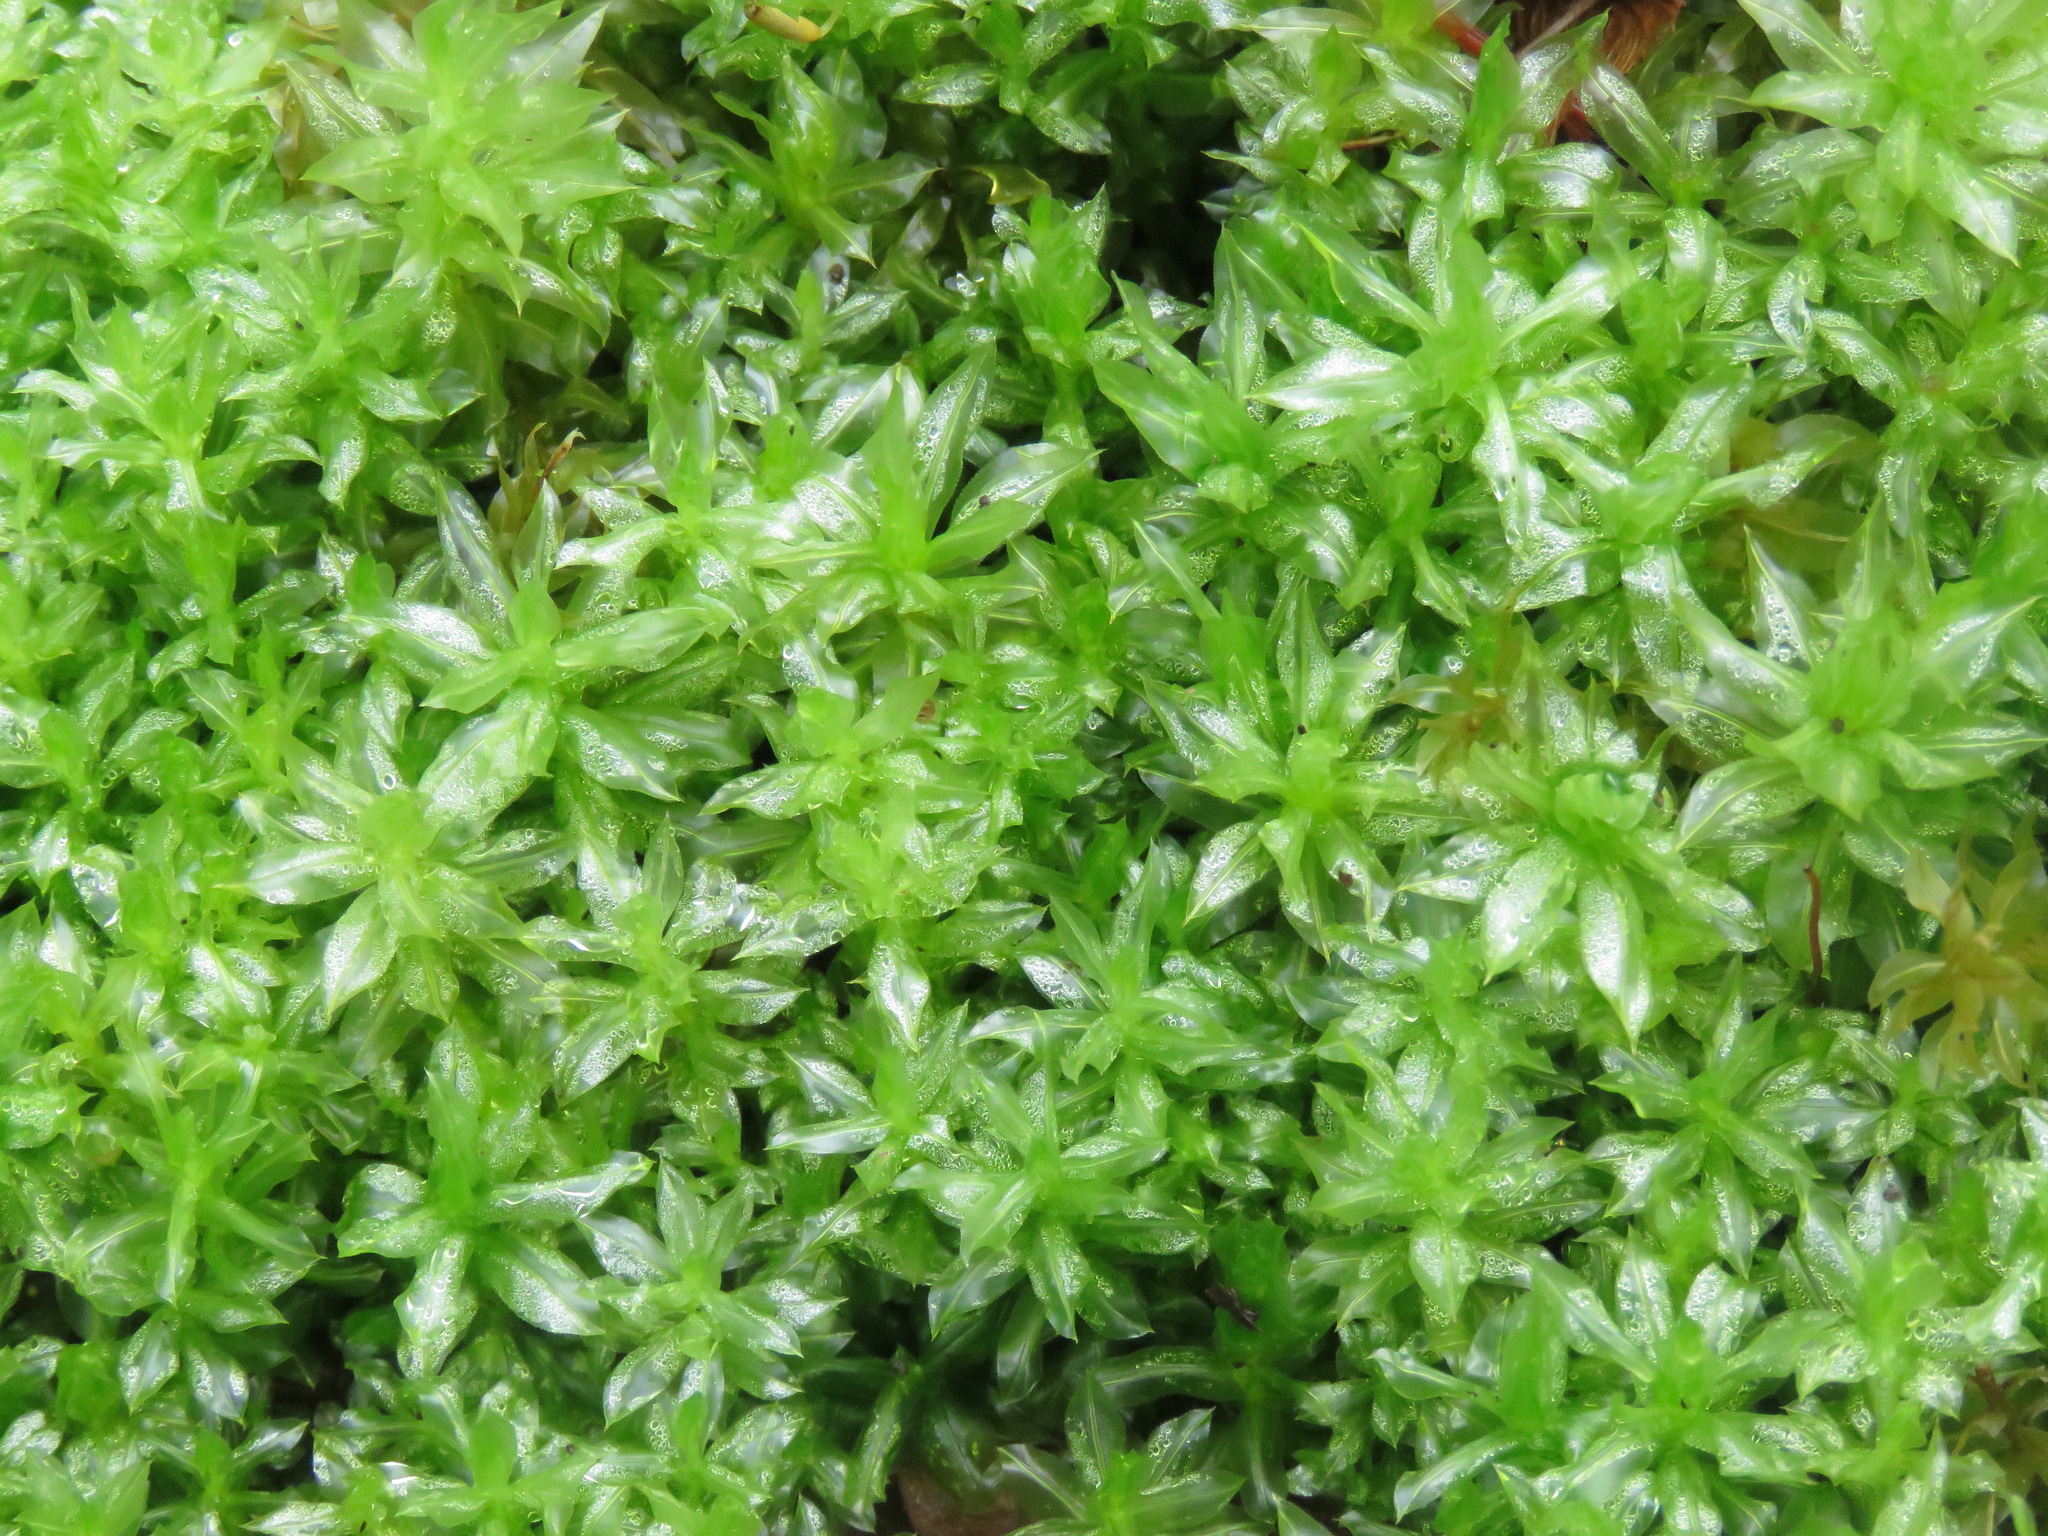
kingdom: Plantae
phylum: Bryophyta
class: Bryopsida
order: Bryales
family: Mniaceae
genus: Plagiomnium
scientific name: Plagiomnium insigne
